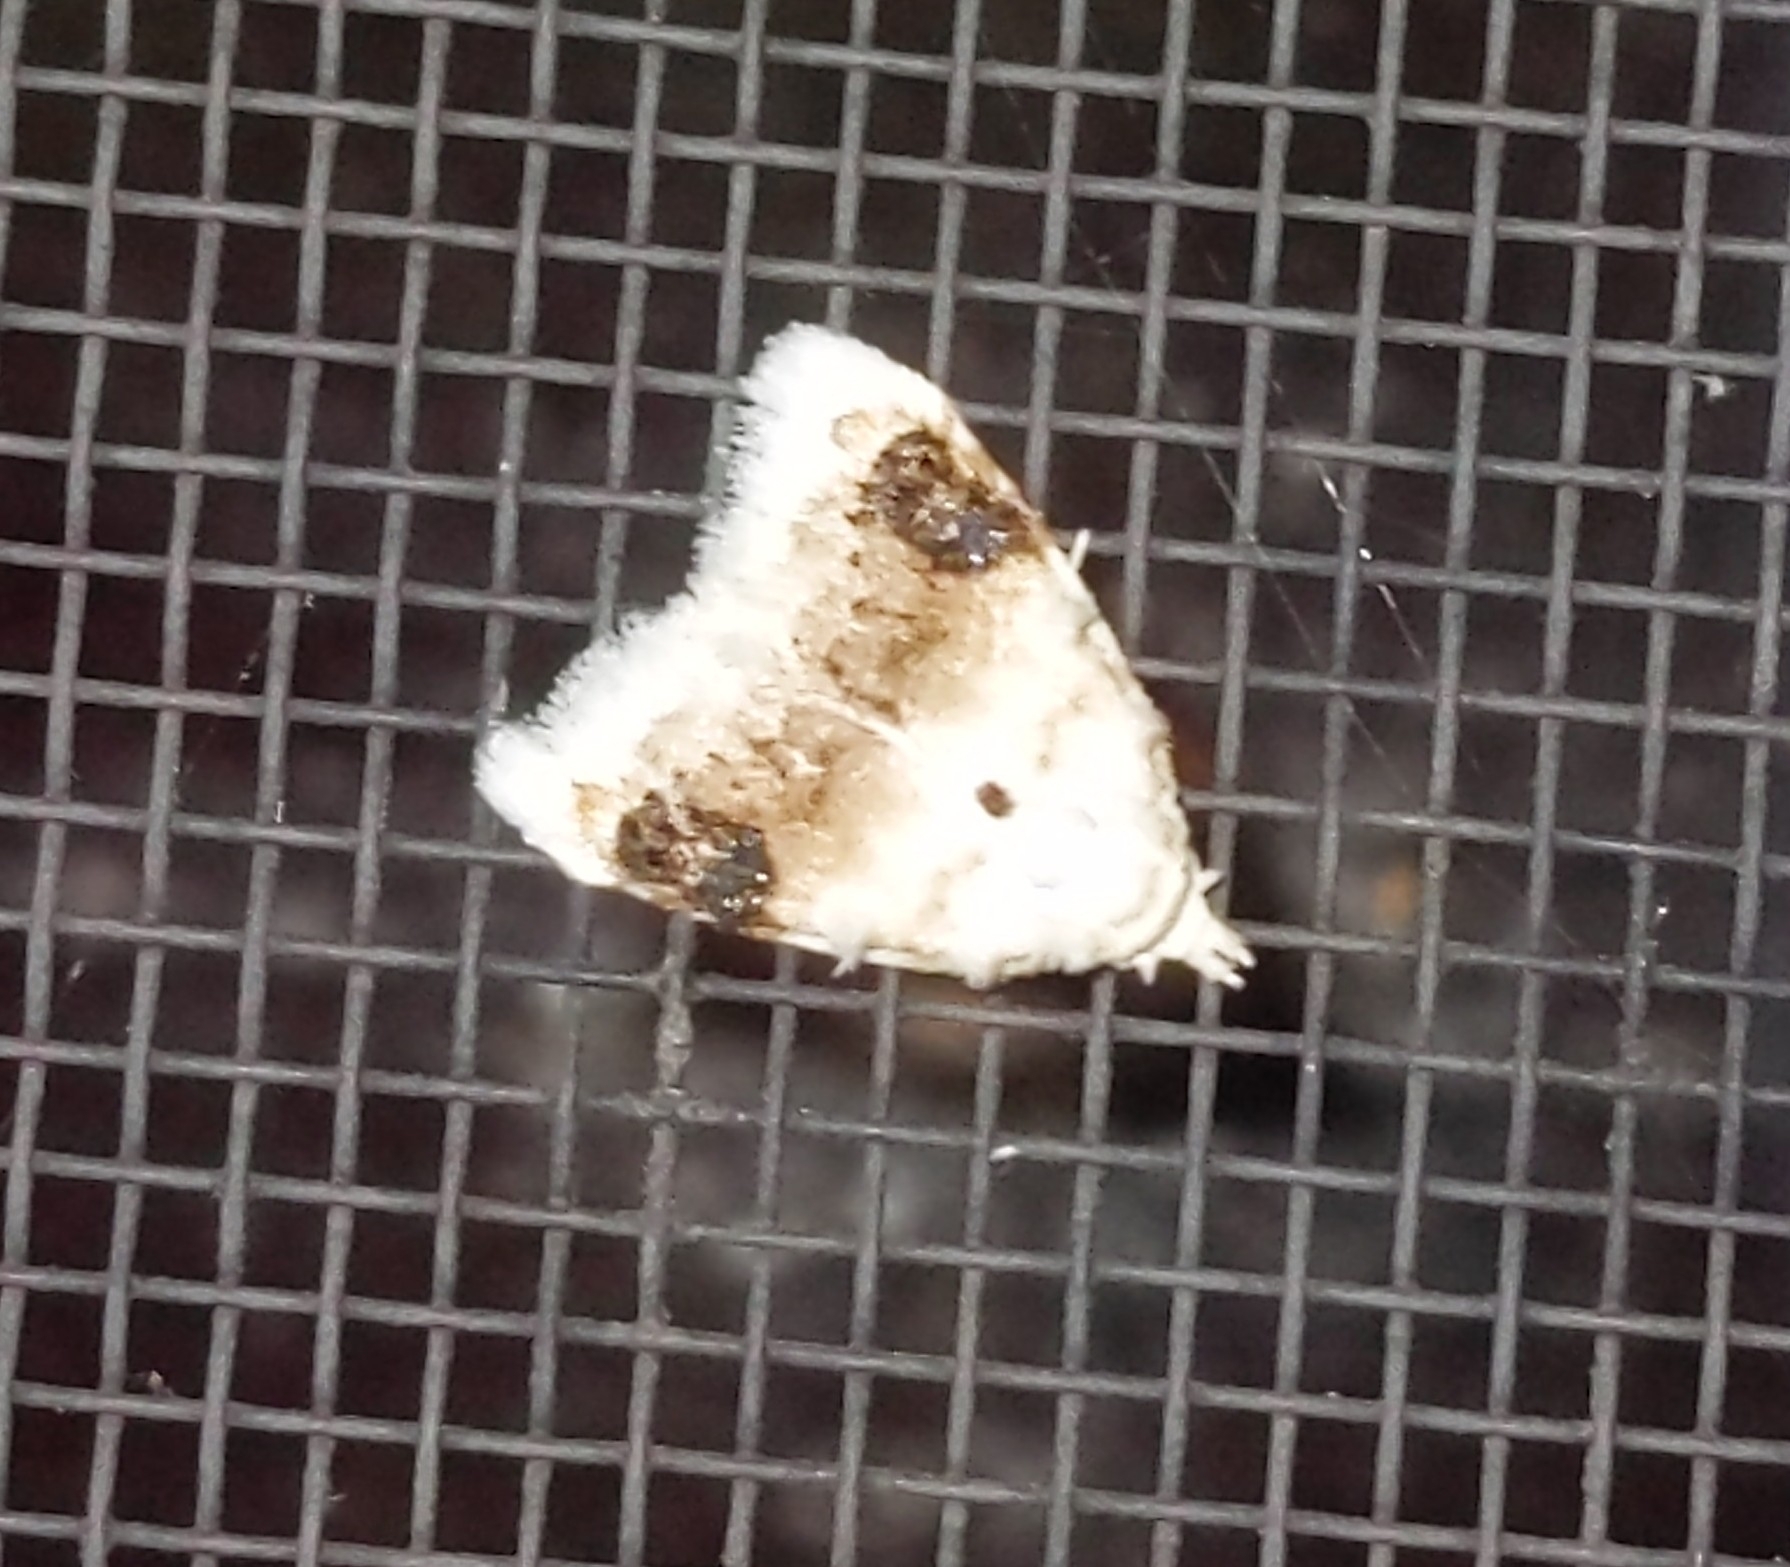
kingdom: Animalia
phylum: Arthropoda
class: Insecta
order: Lepidoptera
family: Nolidae
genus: Nola
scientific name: Nola cilicoides
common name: Blurry-patched nola moth
